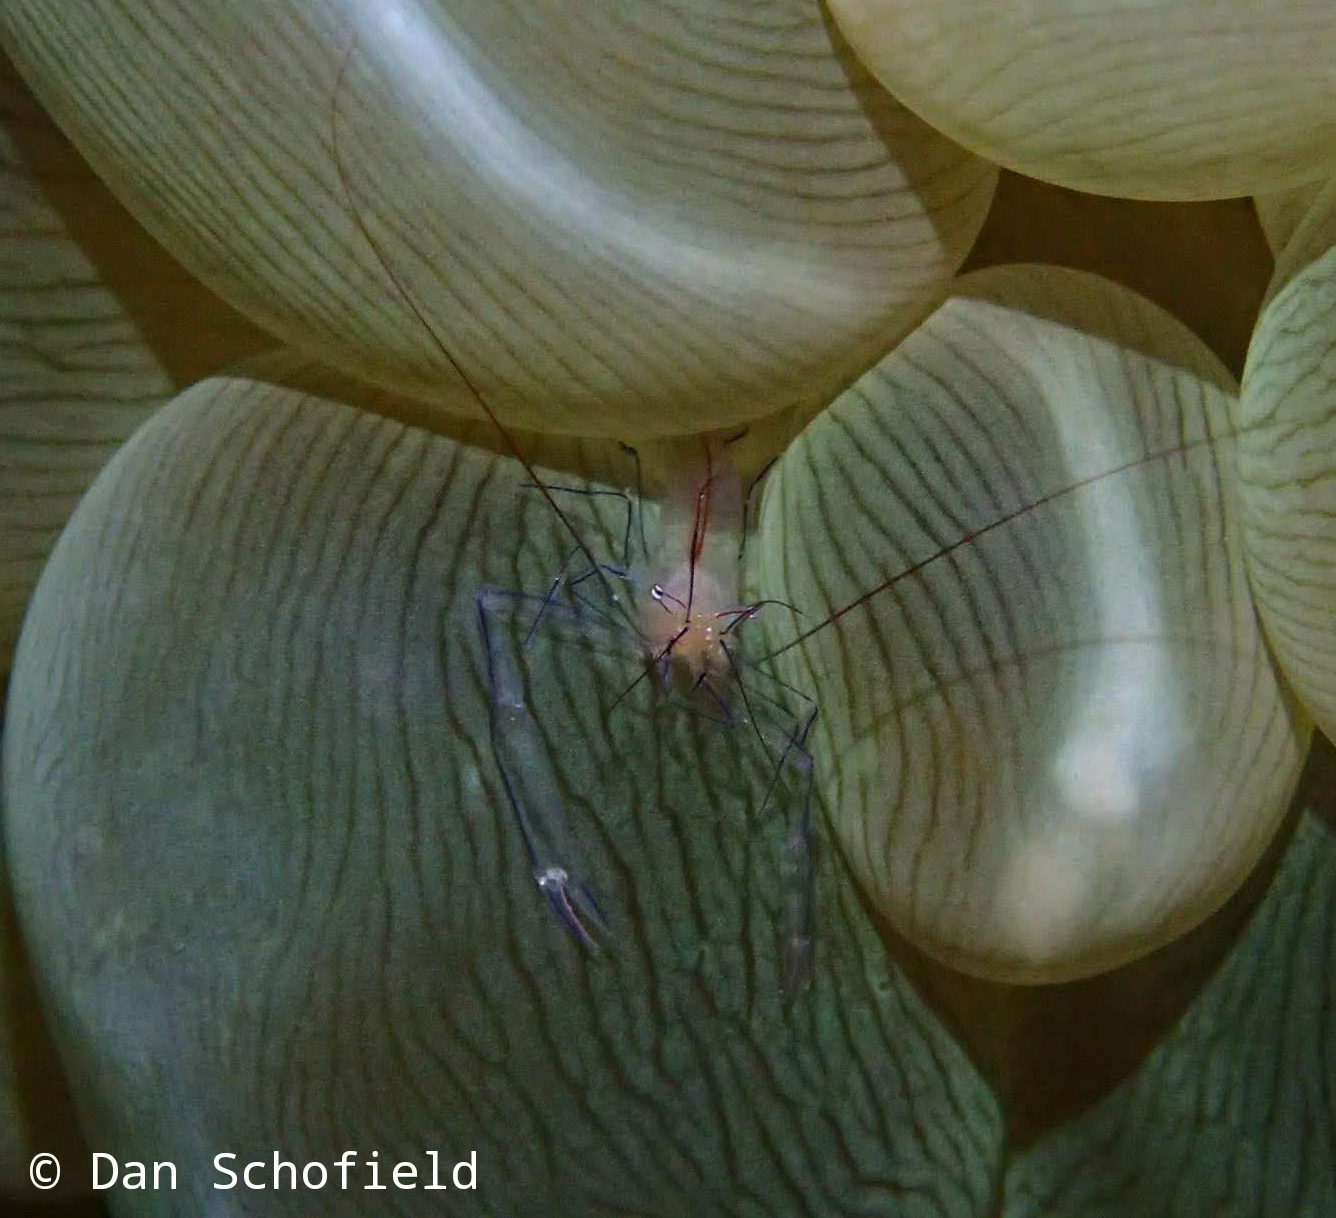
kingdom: Animalia
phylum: Arthropoda
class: Malacostraca
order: Decapoda
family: Palaemonidae
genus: Vir
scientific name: Vir philippinensis
